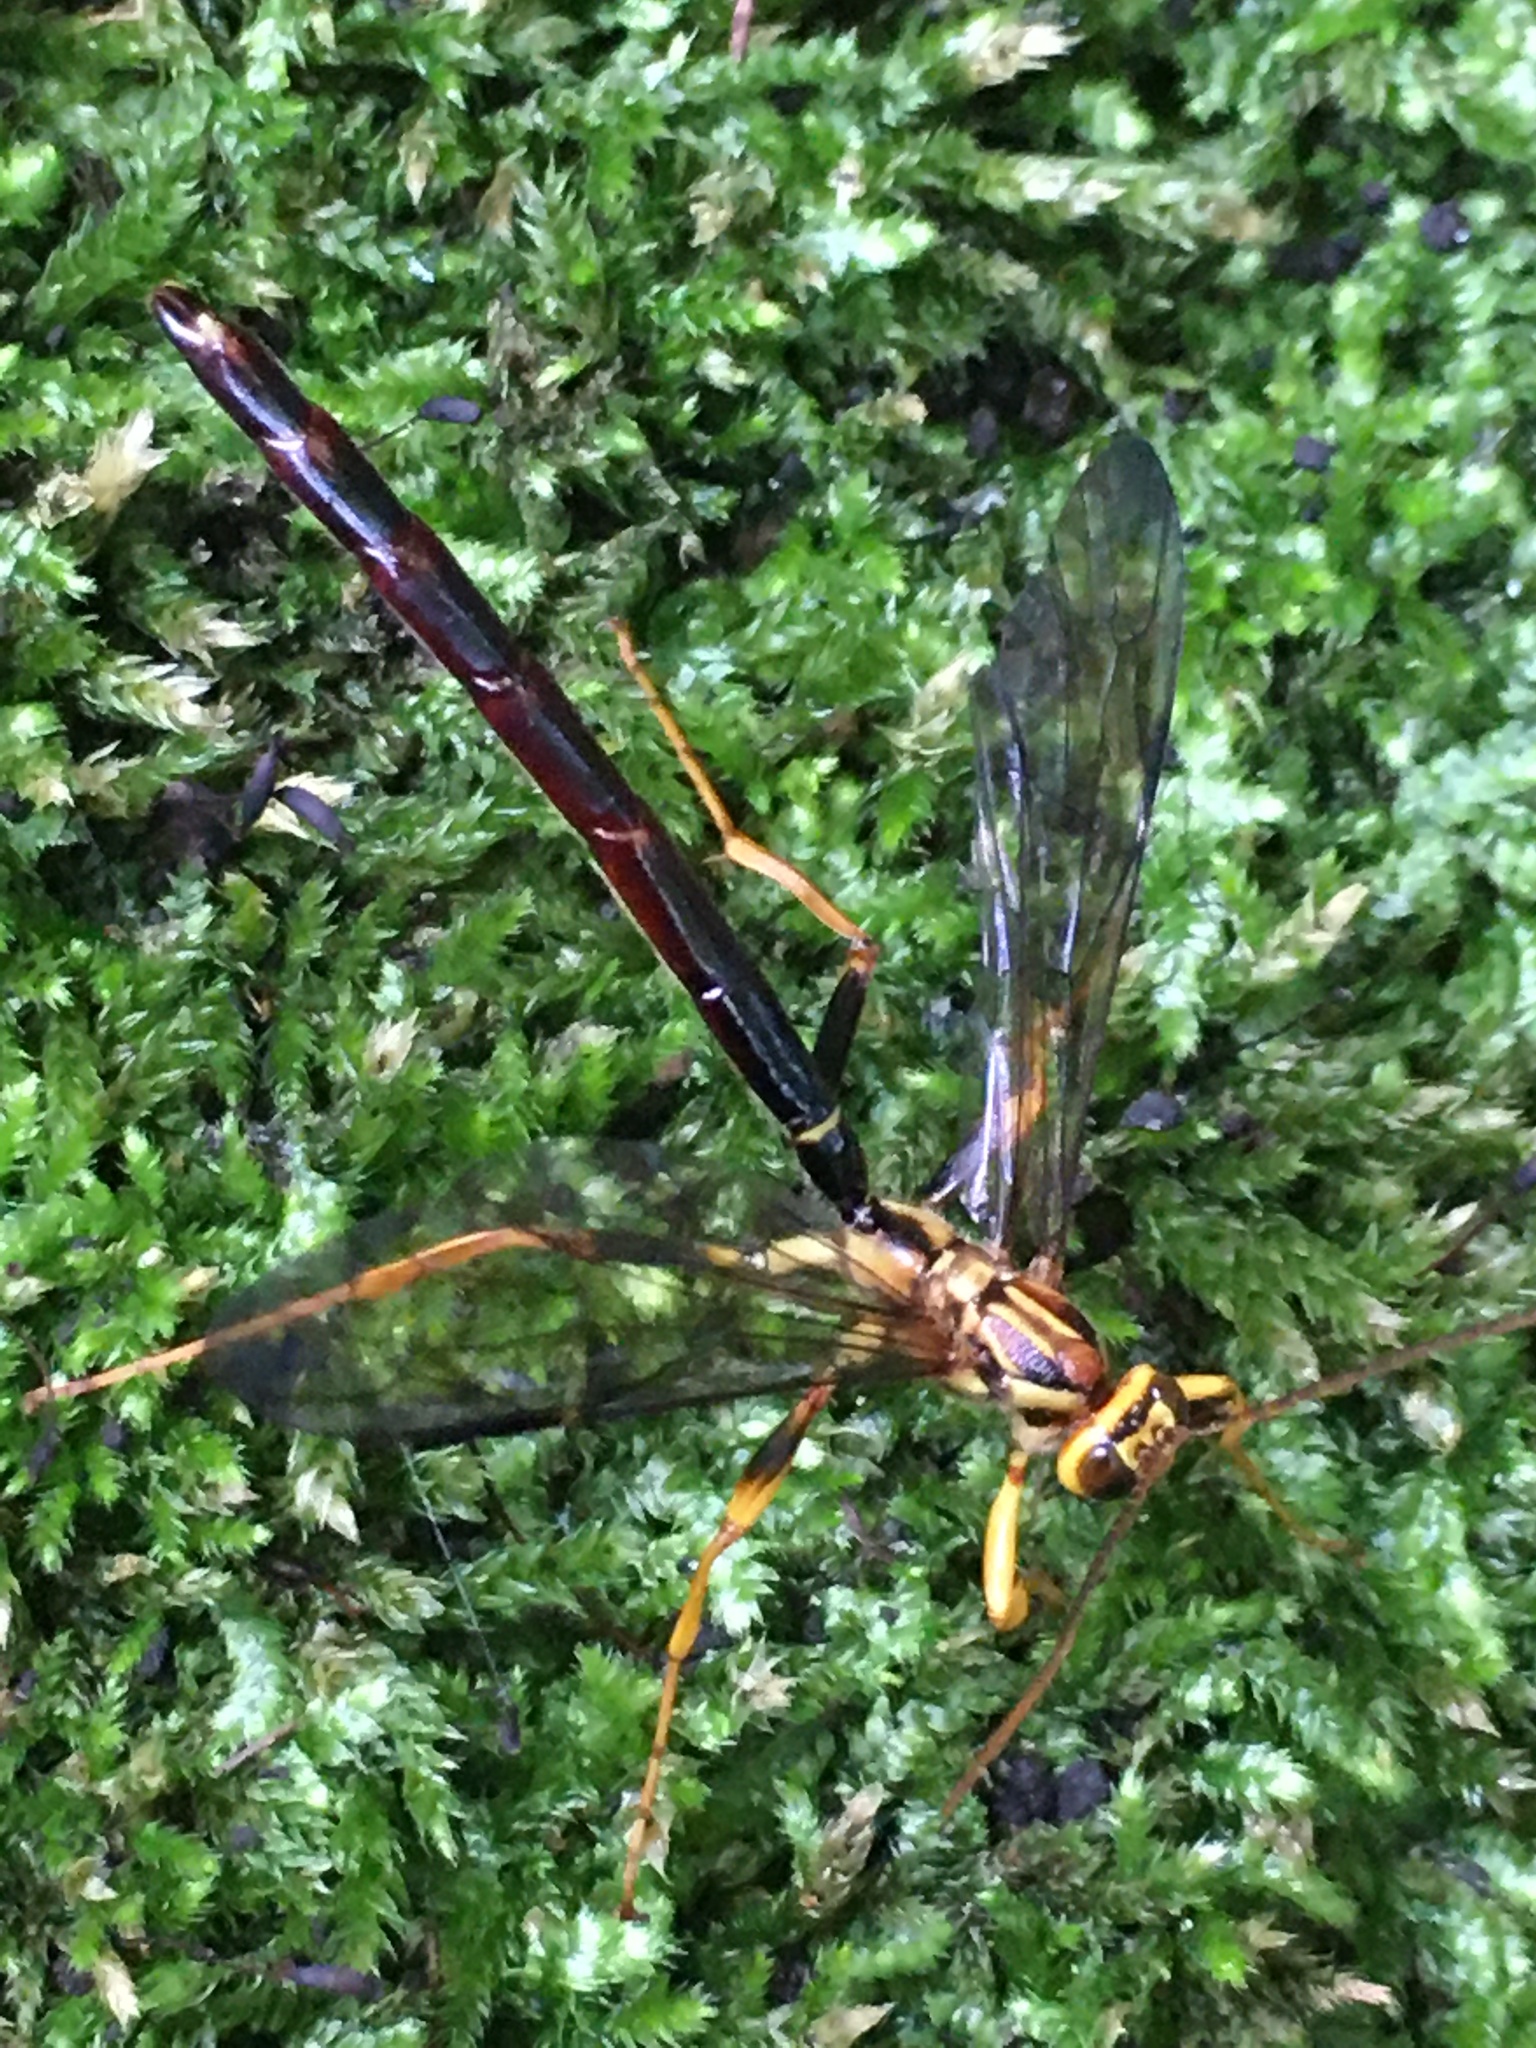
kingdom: Animalia
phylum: Arthropoda
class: Insecta
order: Hymenoptera
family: Ichneumonidae
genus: Megarhyssa
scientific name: Megarhyssa atrata
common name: Black giant ichneumonid wasp
